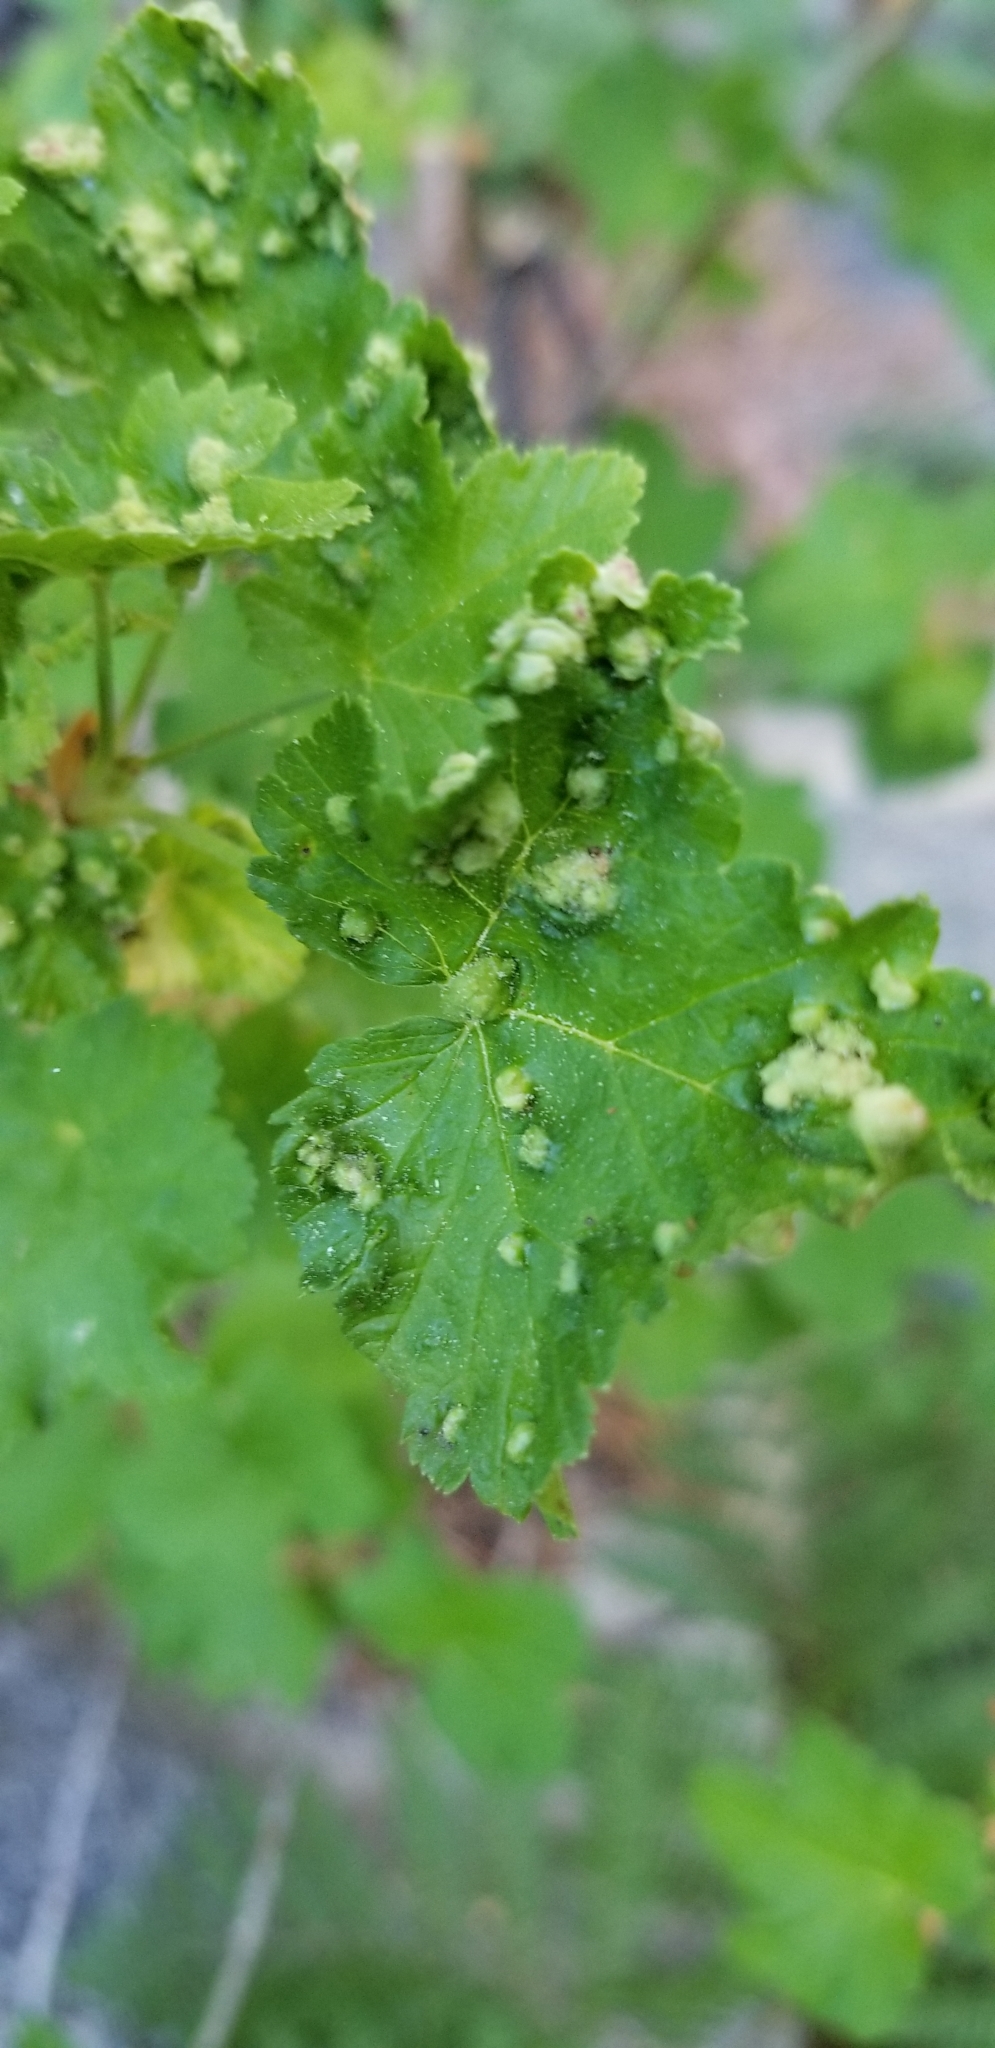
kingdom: Animalia
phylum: Arthropoda
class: Arachnida
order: Trombidiformes
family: Eriophyidae
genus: Aceria
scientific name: Aceria
